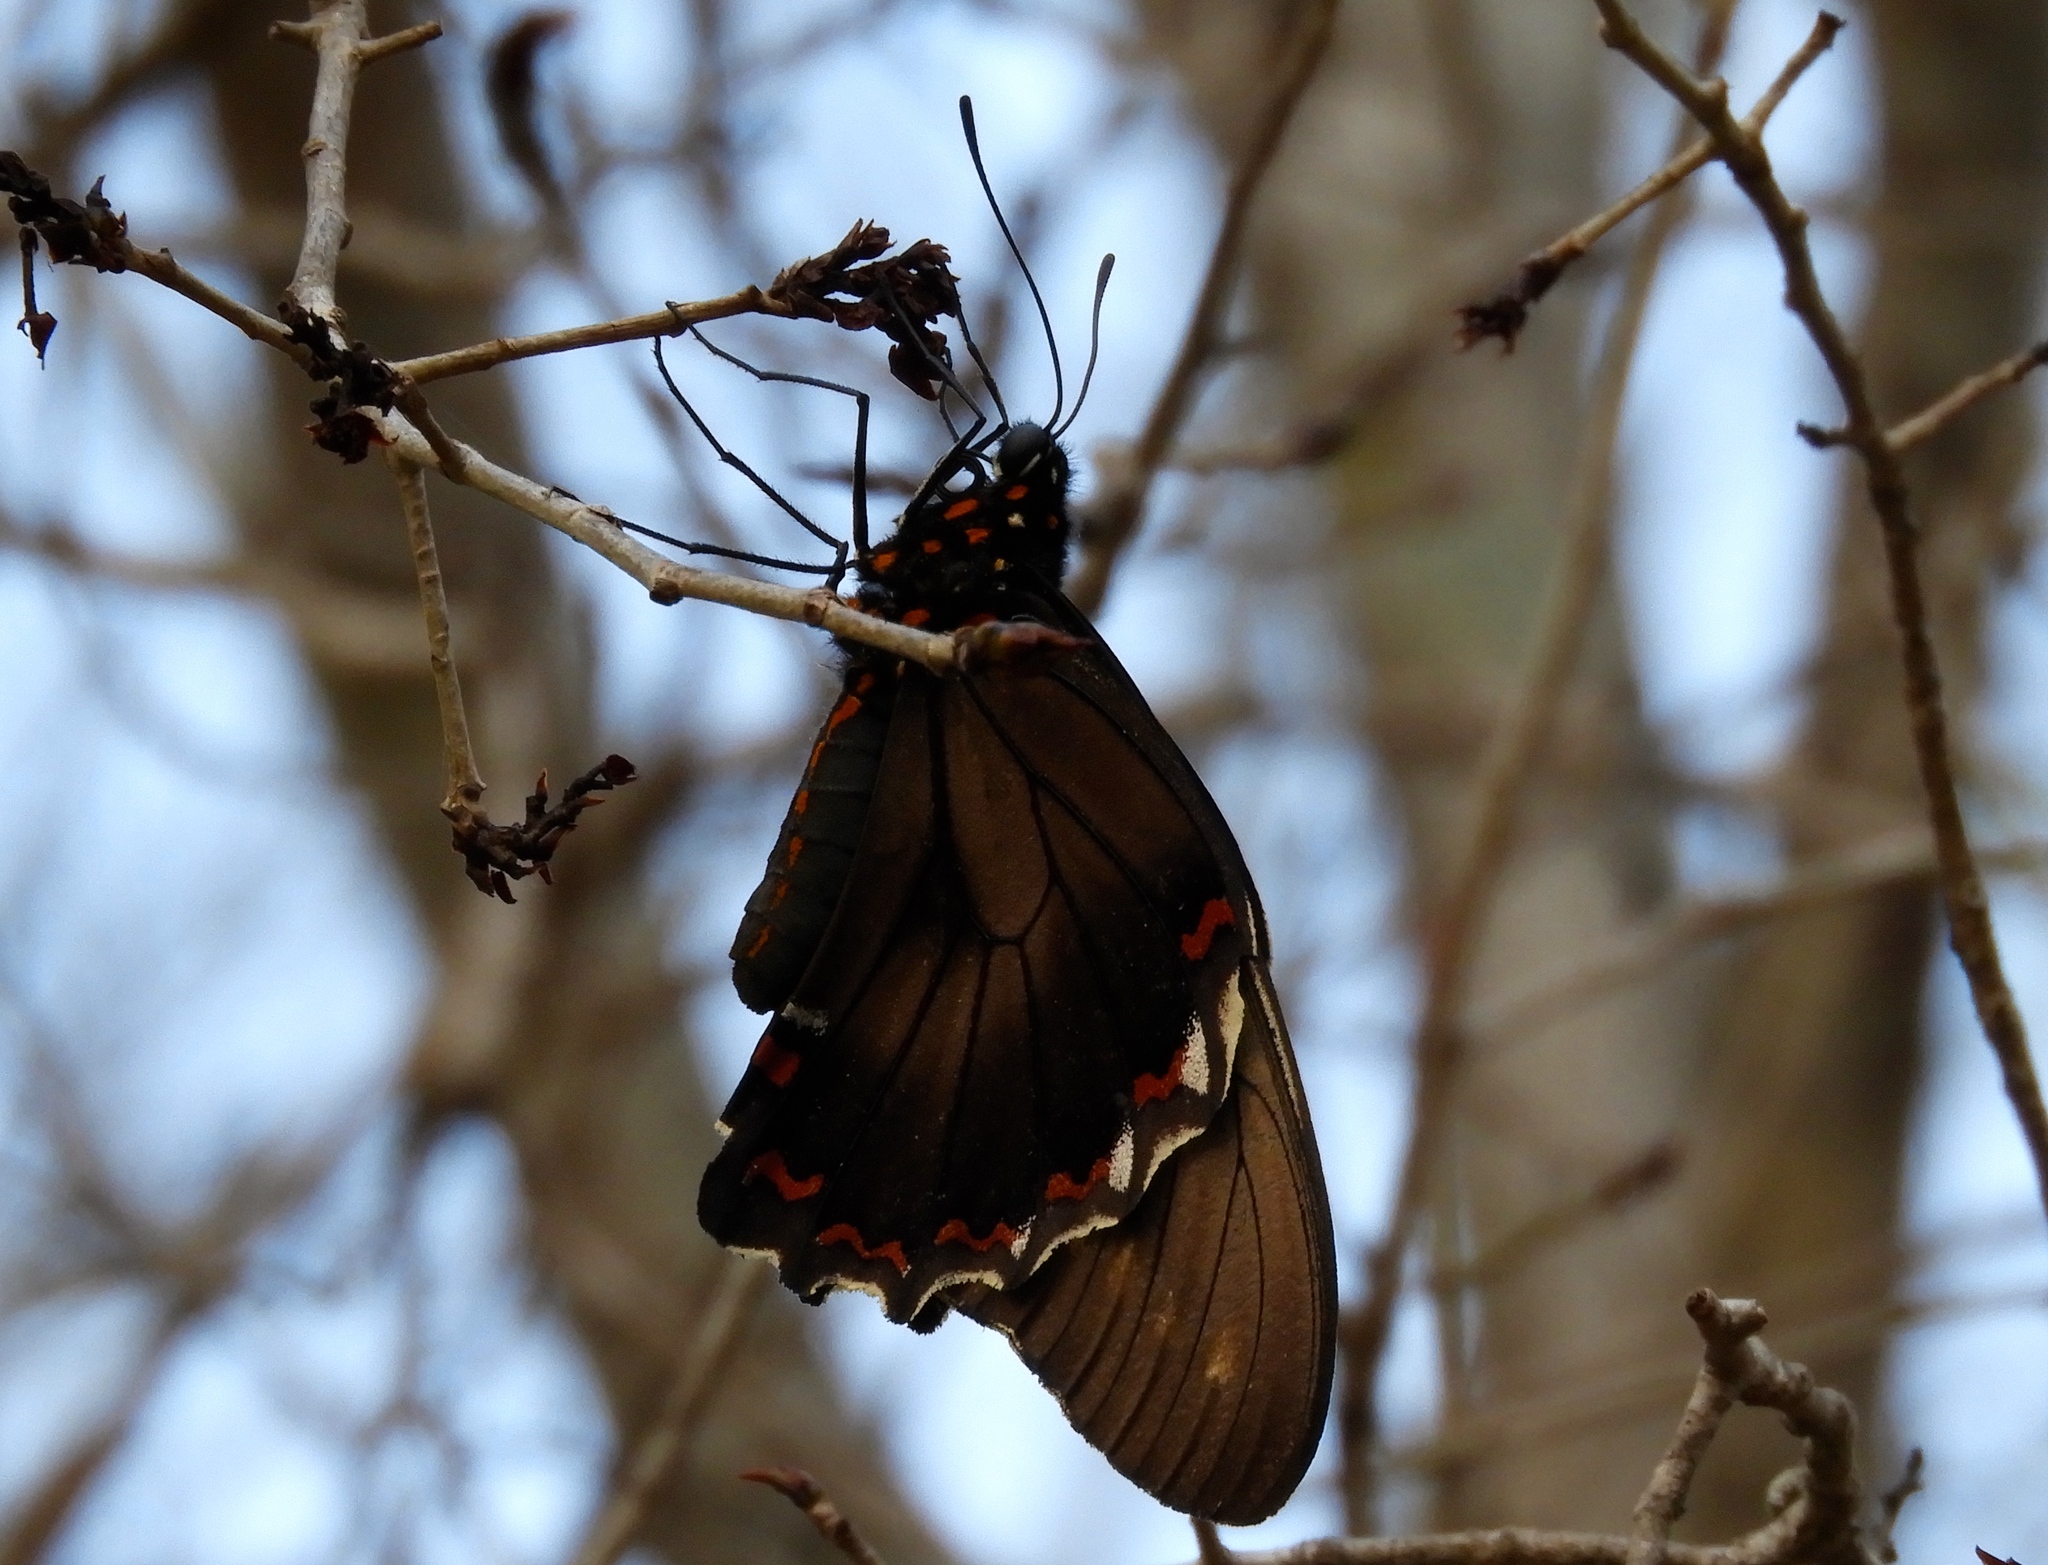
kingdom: Animalia
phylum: Arthropoda
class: Insecta
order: Lepidoptera
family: Papilionidae
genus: Battus
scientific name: Battus polydamas
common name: Polydamas swallowtail
